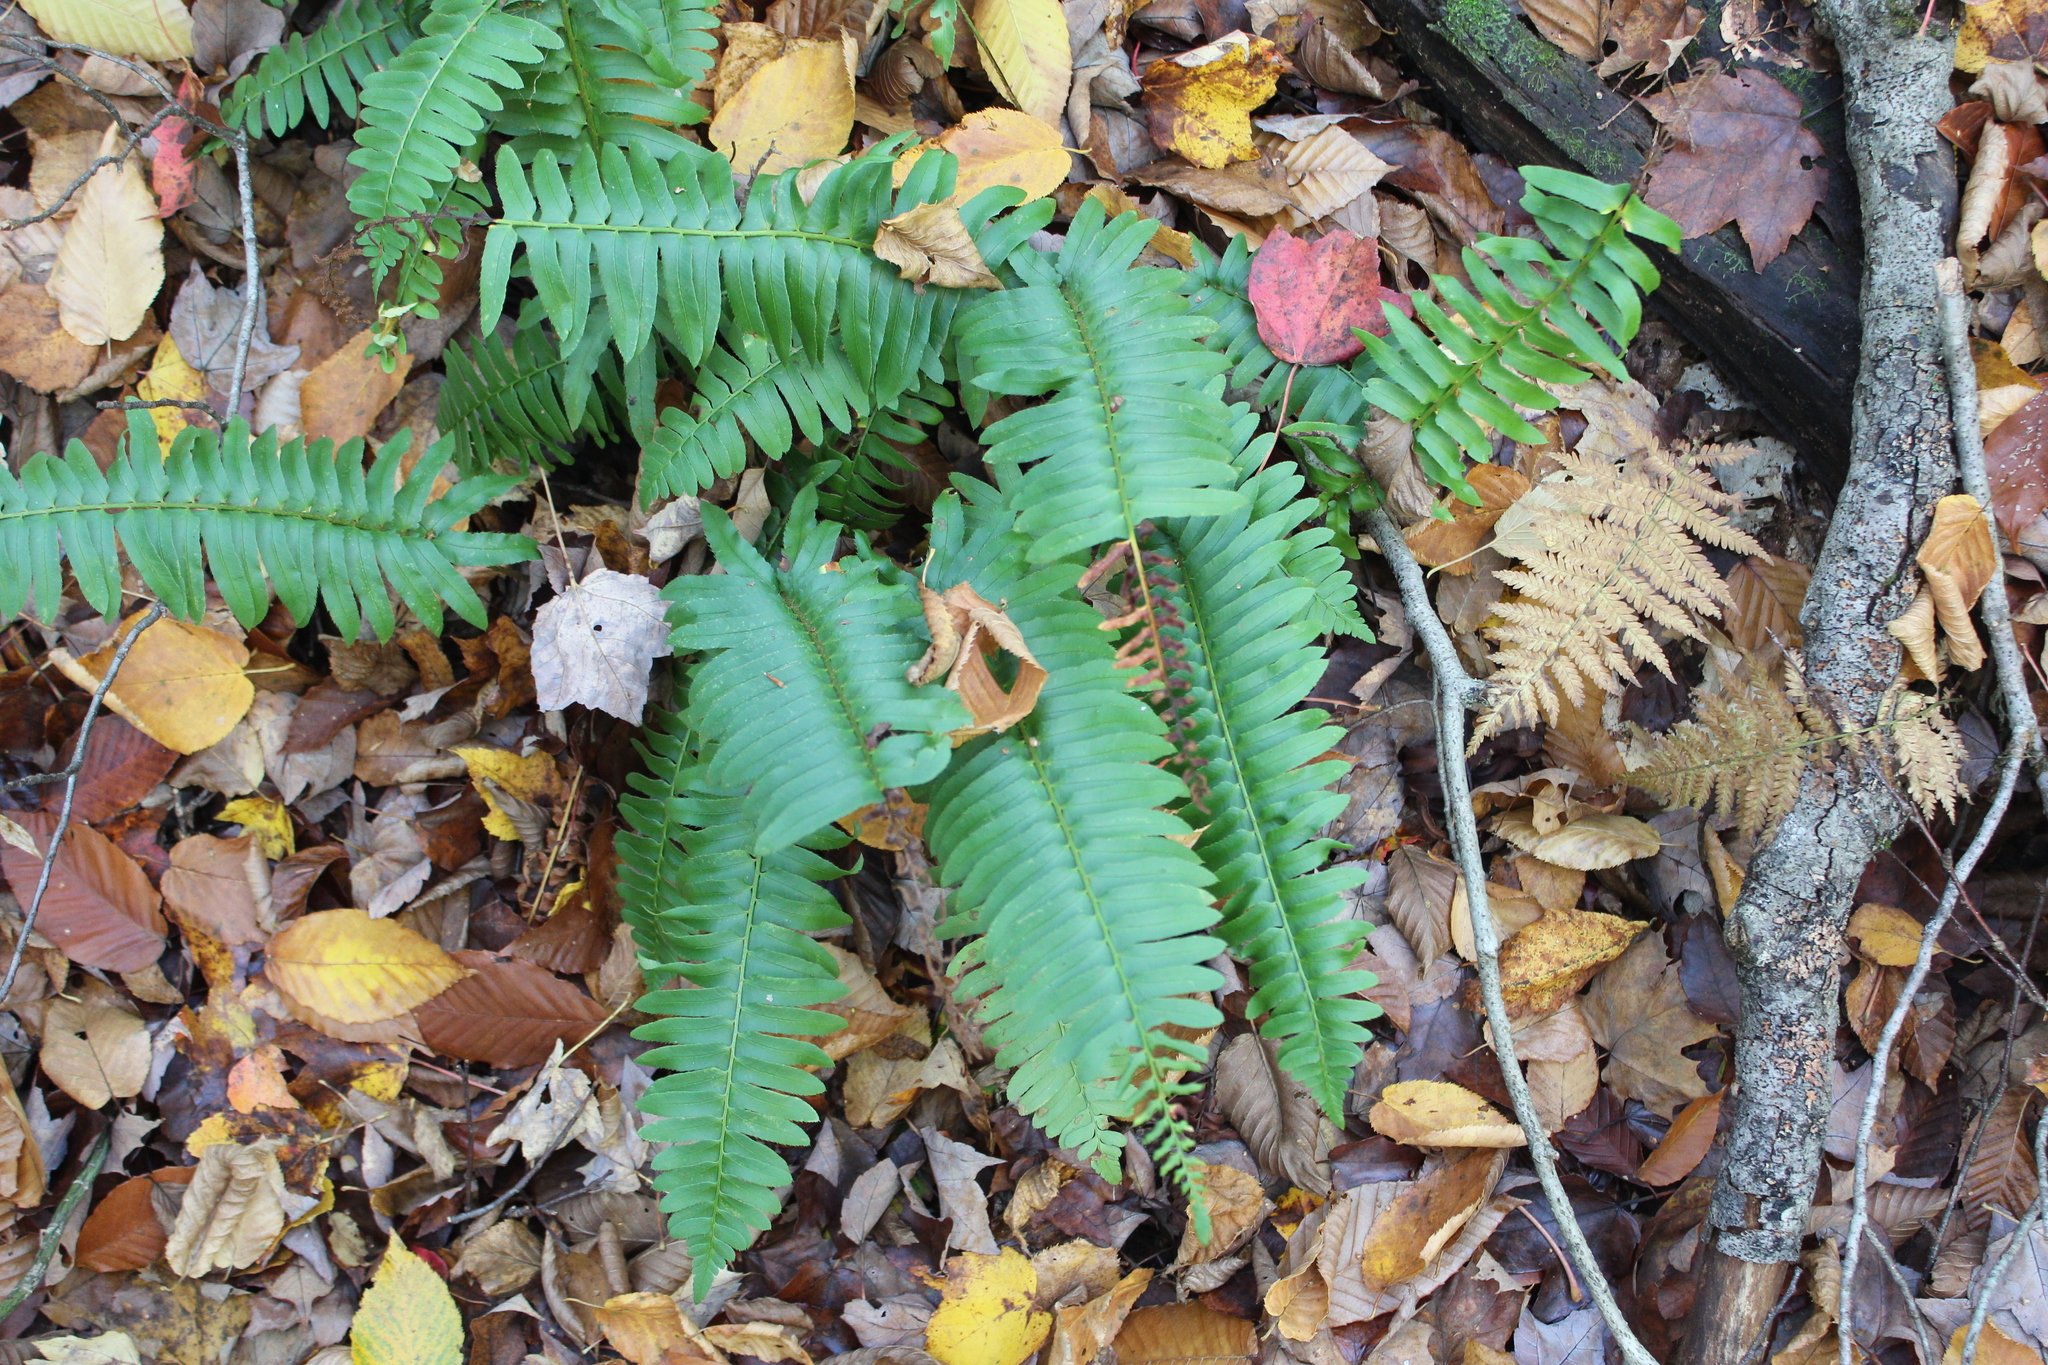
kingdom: Plantae
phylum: Tracheophyta
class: Polypodiopsida
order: Polypodiales
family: Dryopteridaceae
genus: Polystichum
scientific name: Polystichum acrostichoides
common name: Christmas fern
